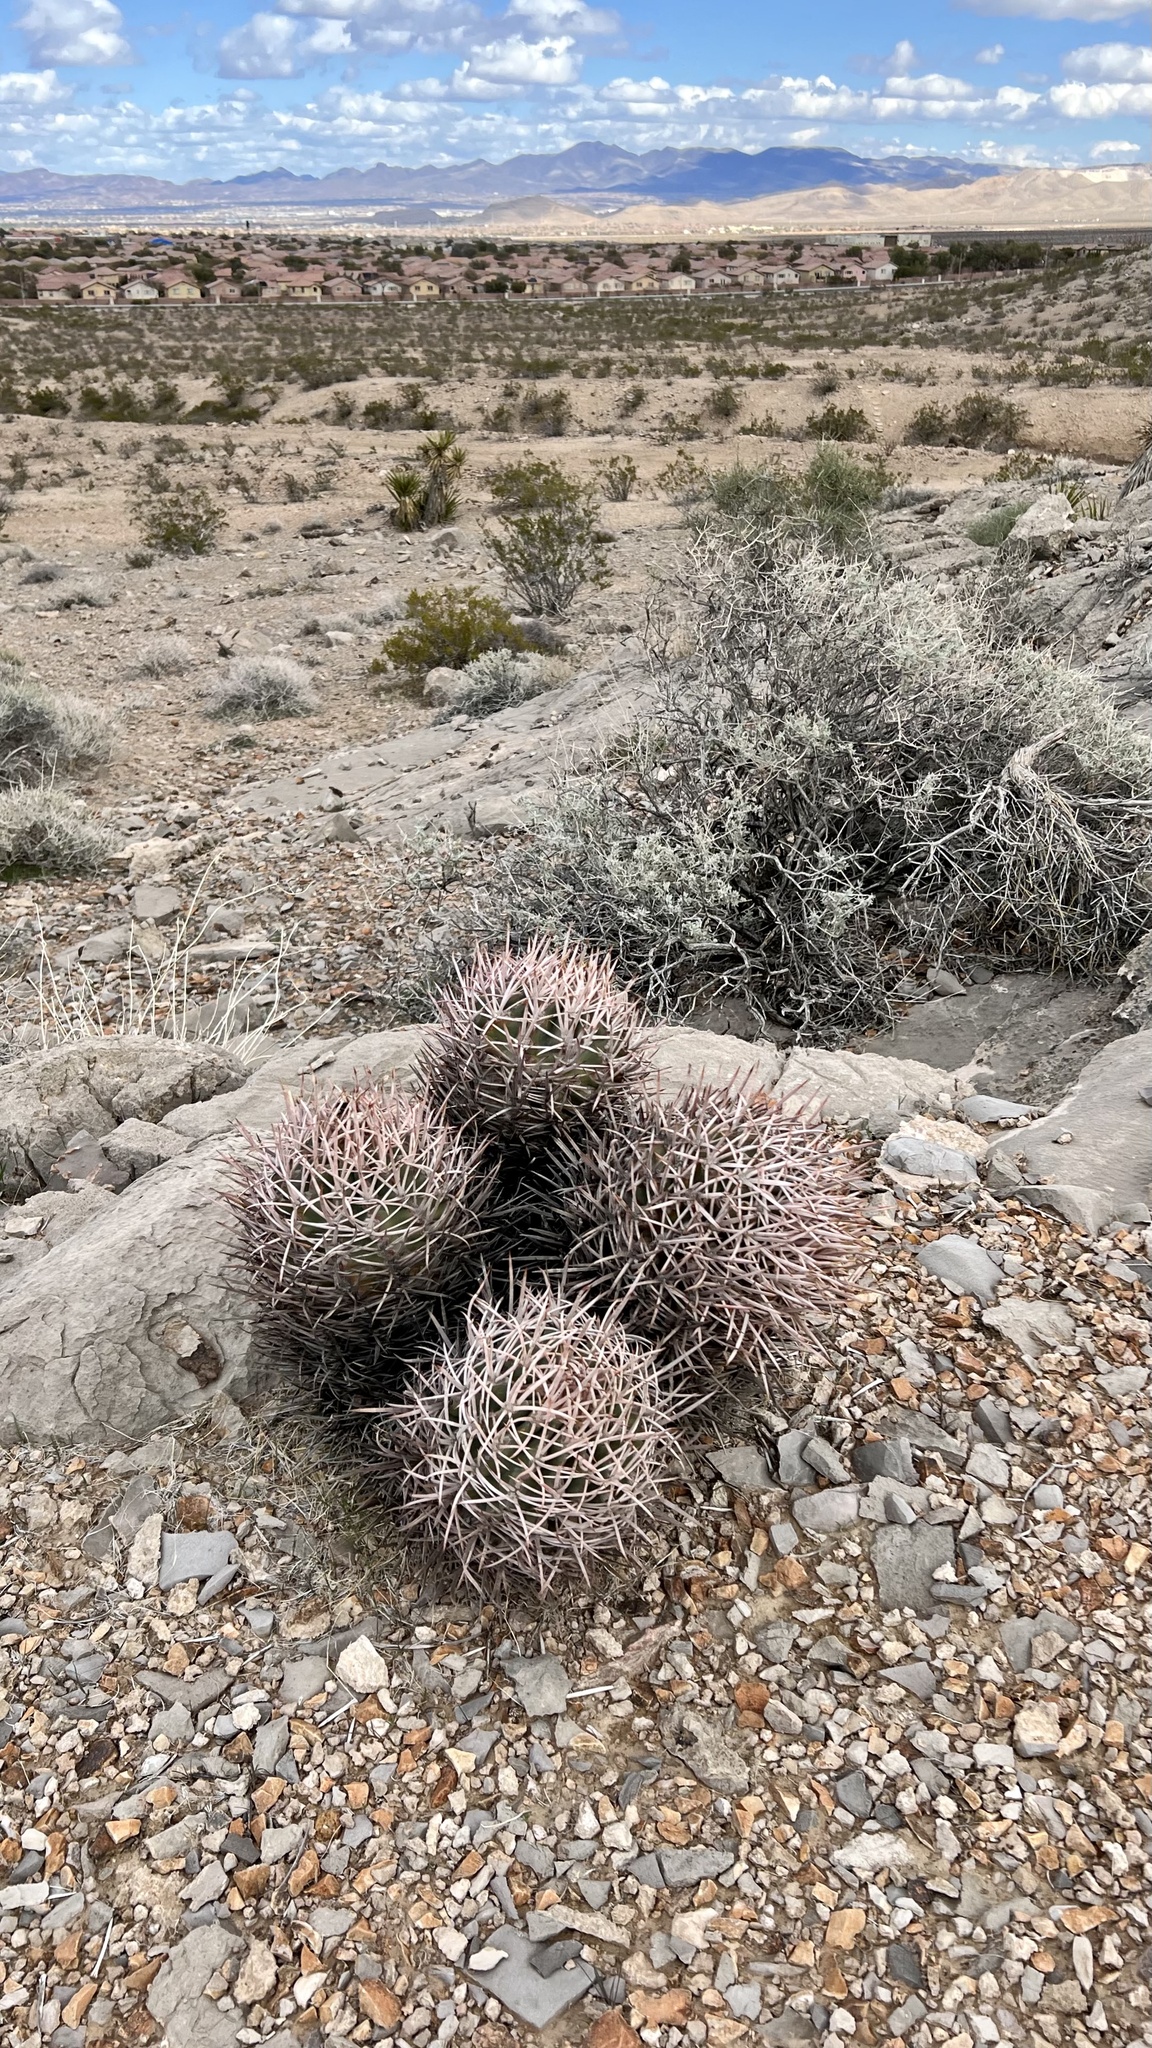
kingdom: Plantae
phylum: Tracheophyta
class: Magnoliopsida
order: Caryophyllales
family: Cactaceae
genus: Echinocactus
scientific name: Echinocactus polycephalus
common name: Cottontop cactus
